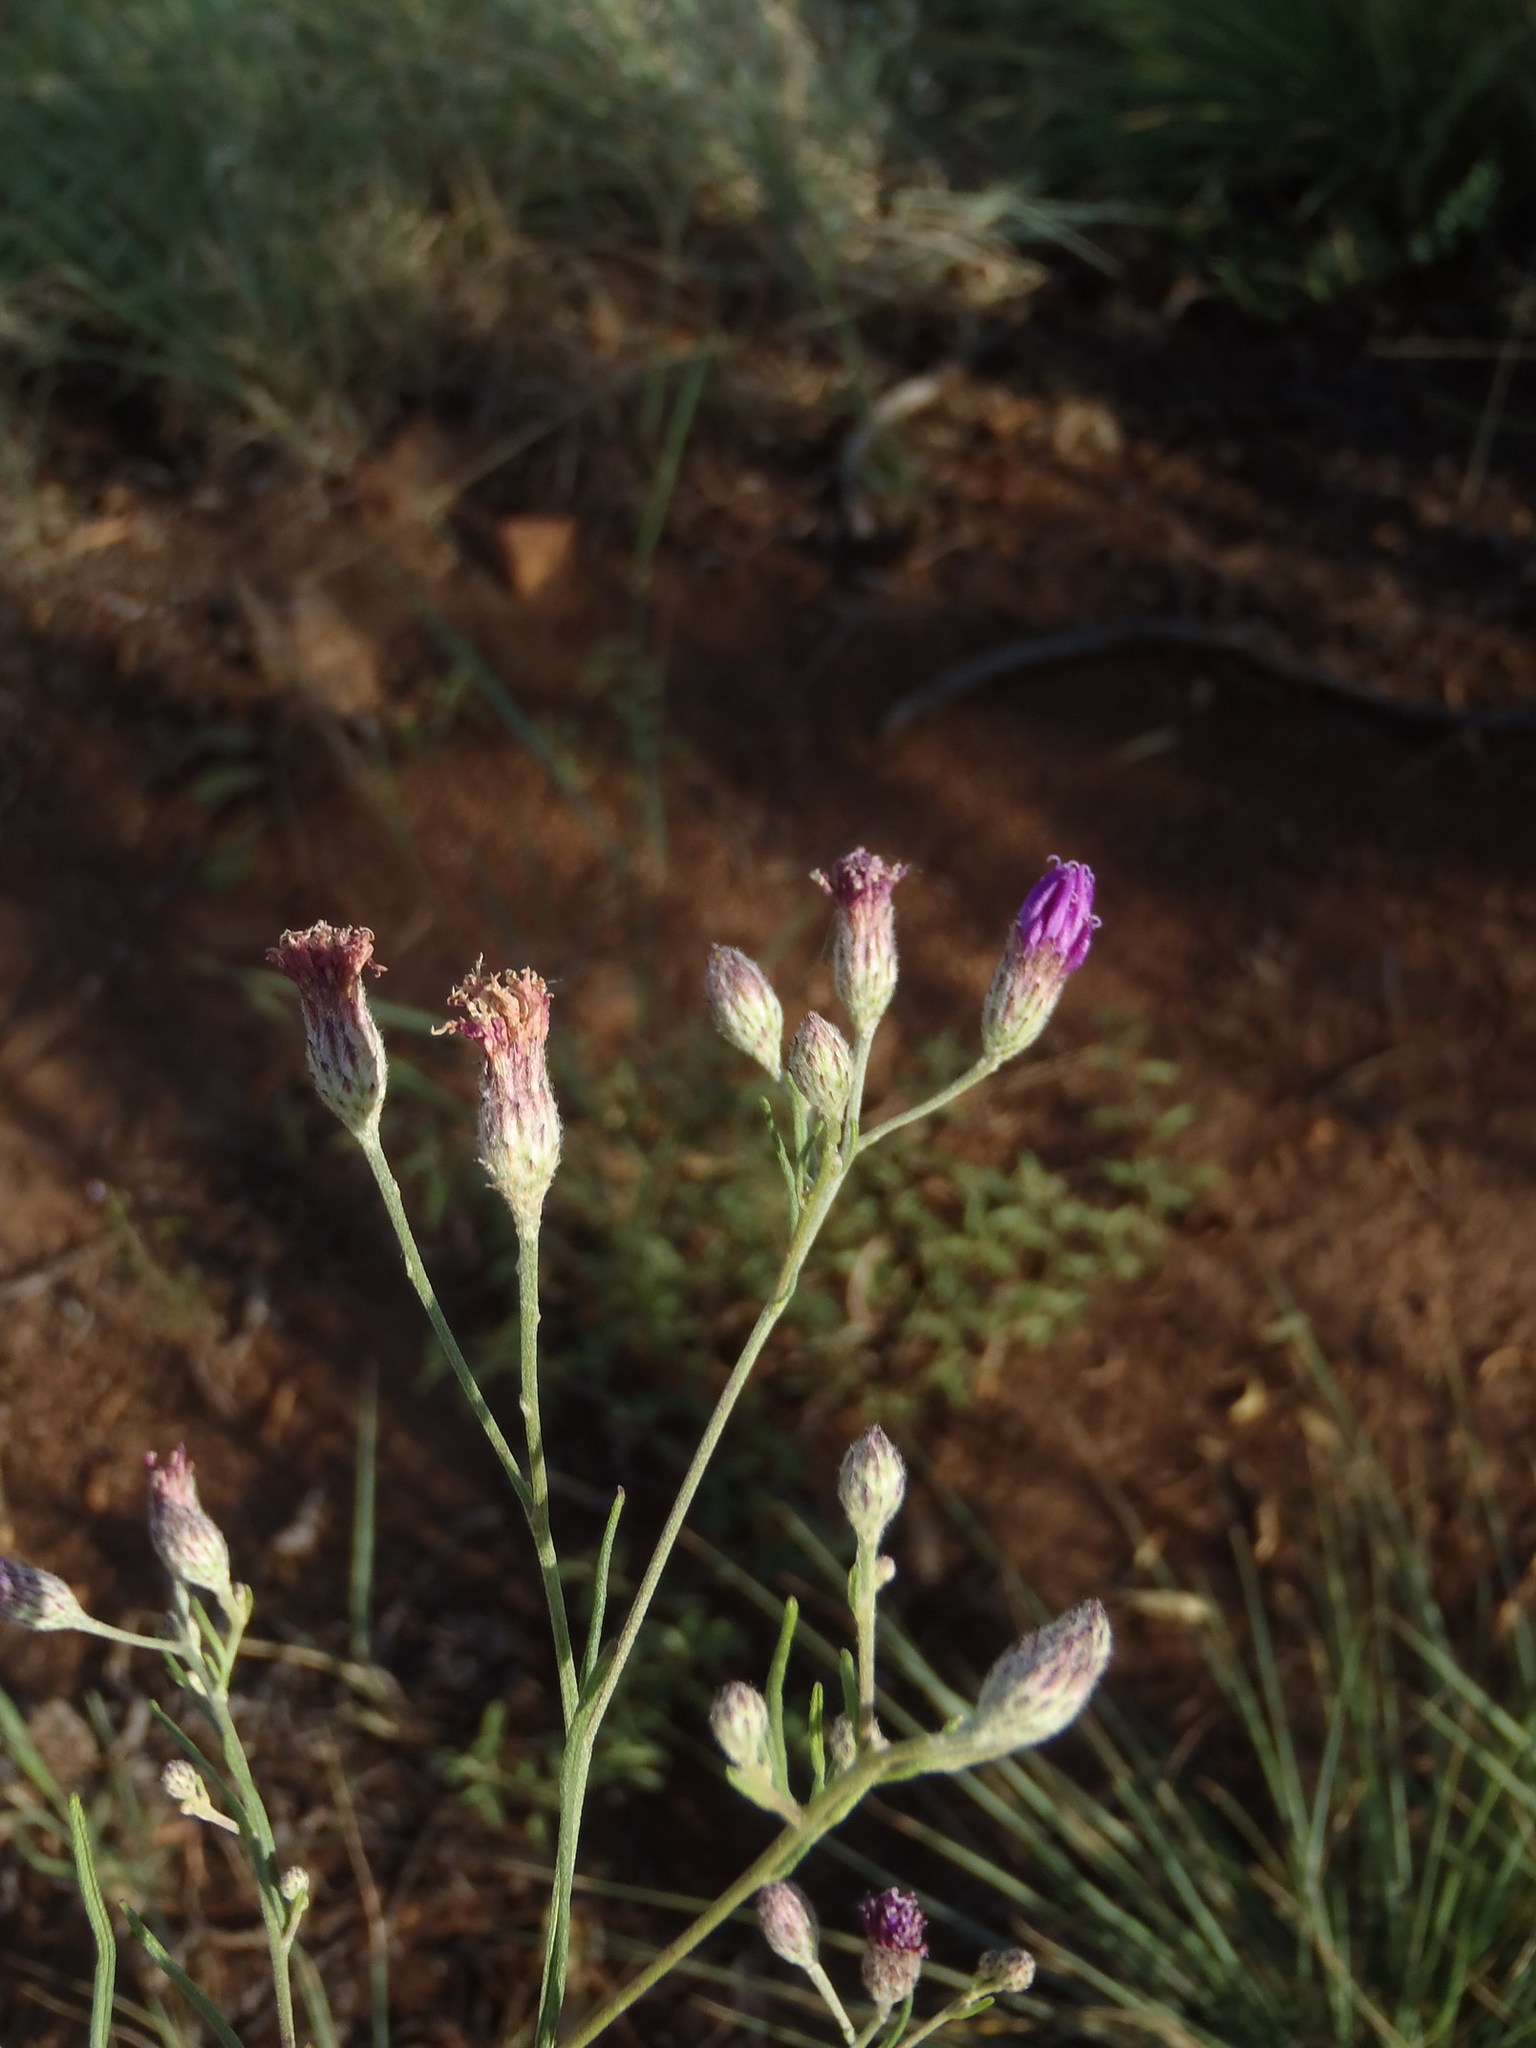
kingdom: Plantae
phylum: Tracheophyta
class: Magnoliopsida
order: Asterales
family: Asteraceae
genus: Crystallopollen
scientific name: Crystallopollen angustifolium
